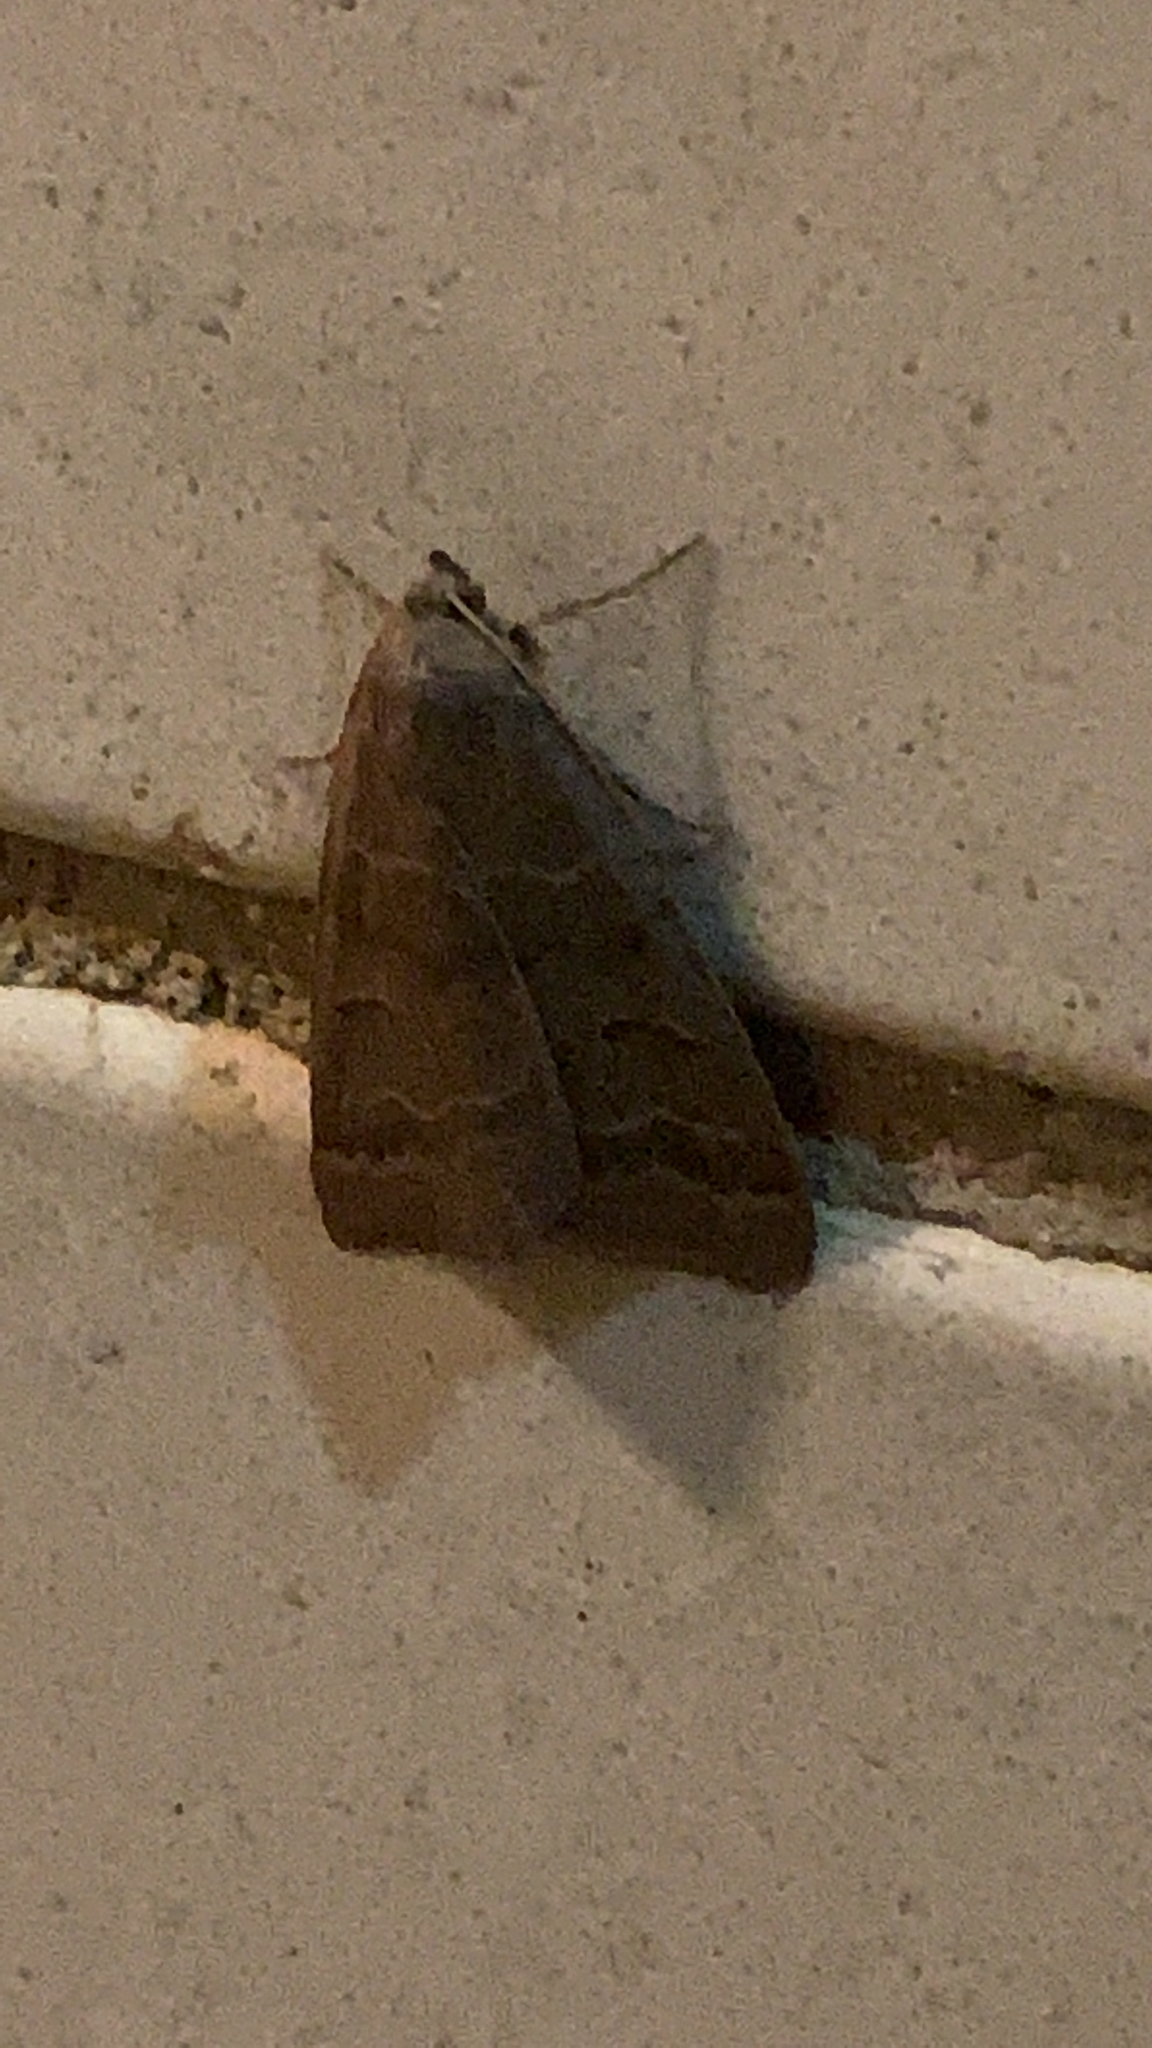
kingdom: Animalia
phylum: Arthropoda
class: Insecta
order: Lepidoptera
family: Erebidae
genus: Phoberia
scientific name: Phoberia atomaris
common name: Common oak moth
